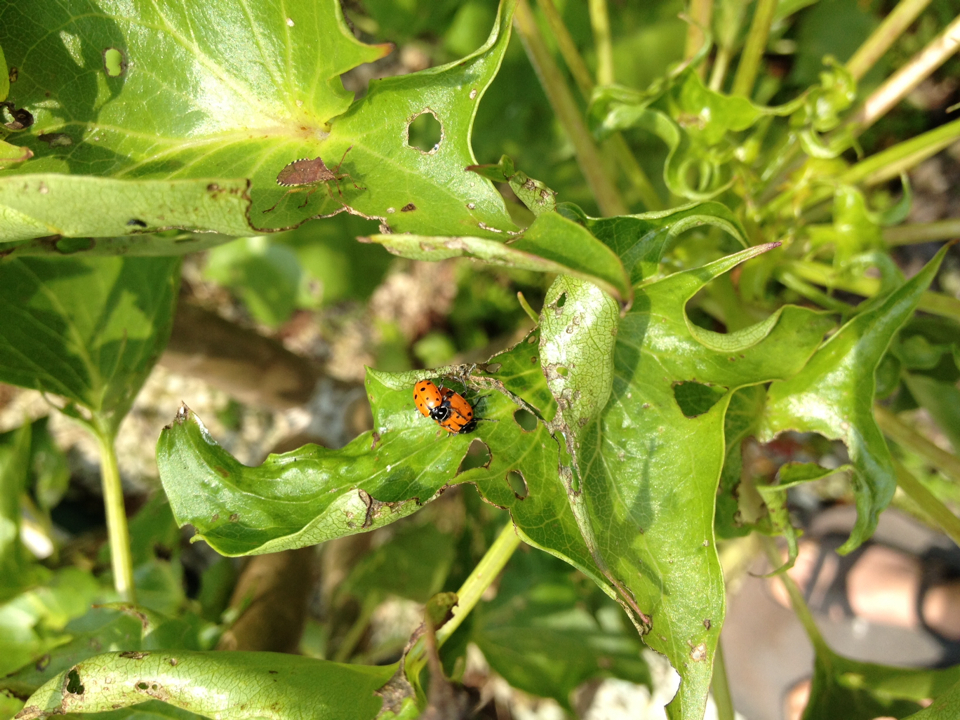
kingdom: Animalia
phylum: Arthropoda
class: Insecta
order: Coleoptera
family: Coccinellidae
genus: Hippodamia
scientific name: Hippodamia convergens
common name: Convergent lady beetle
